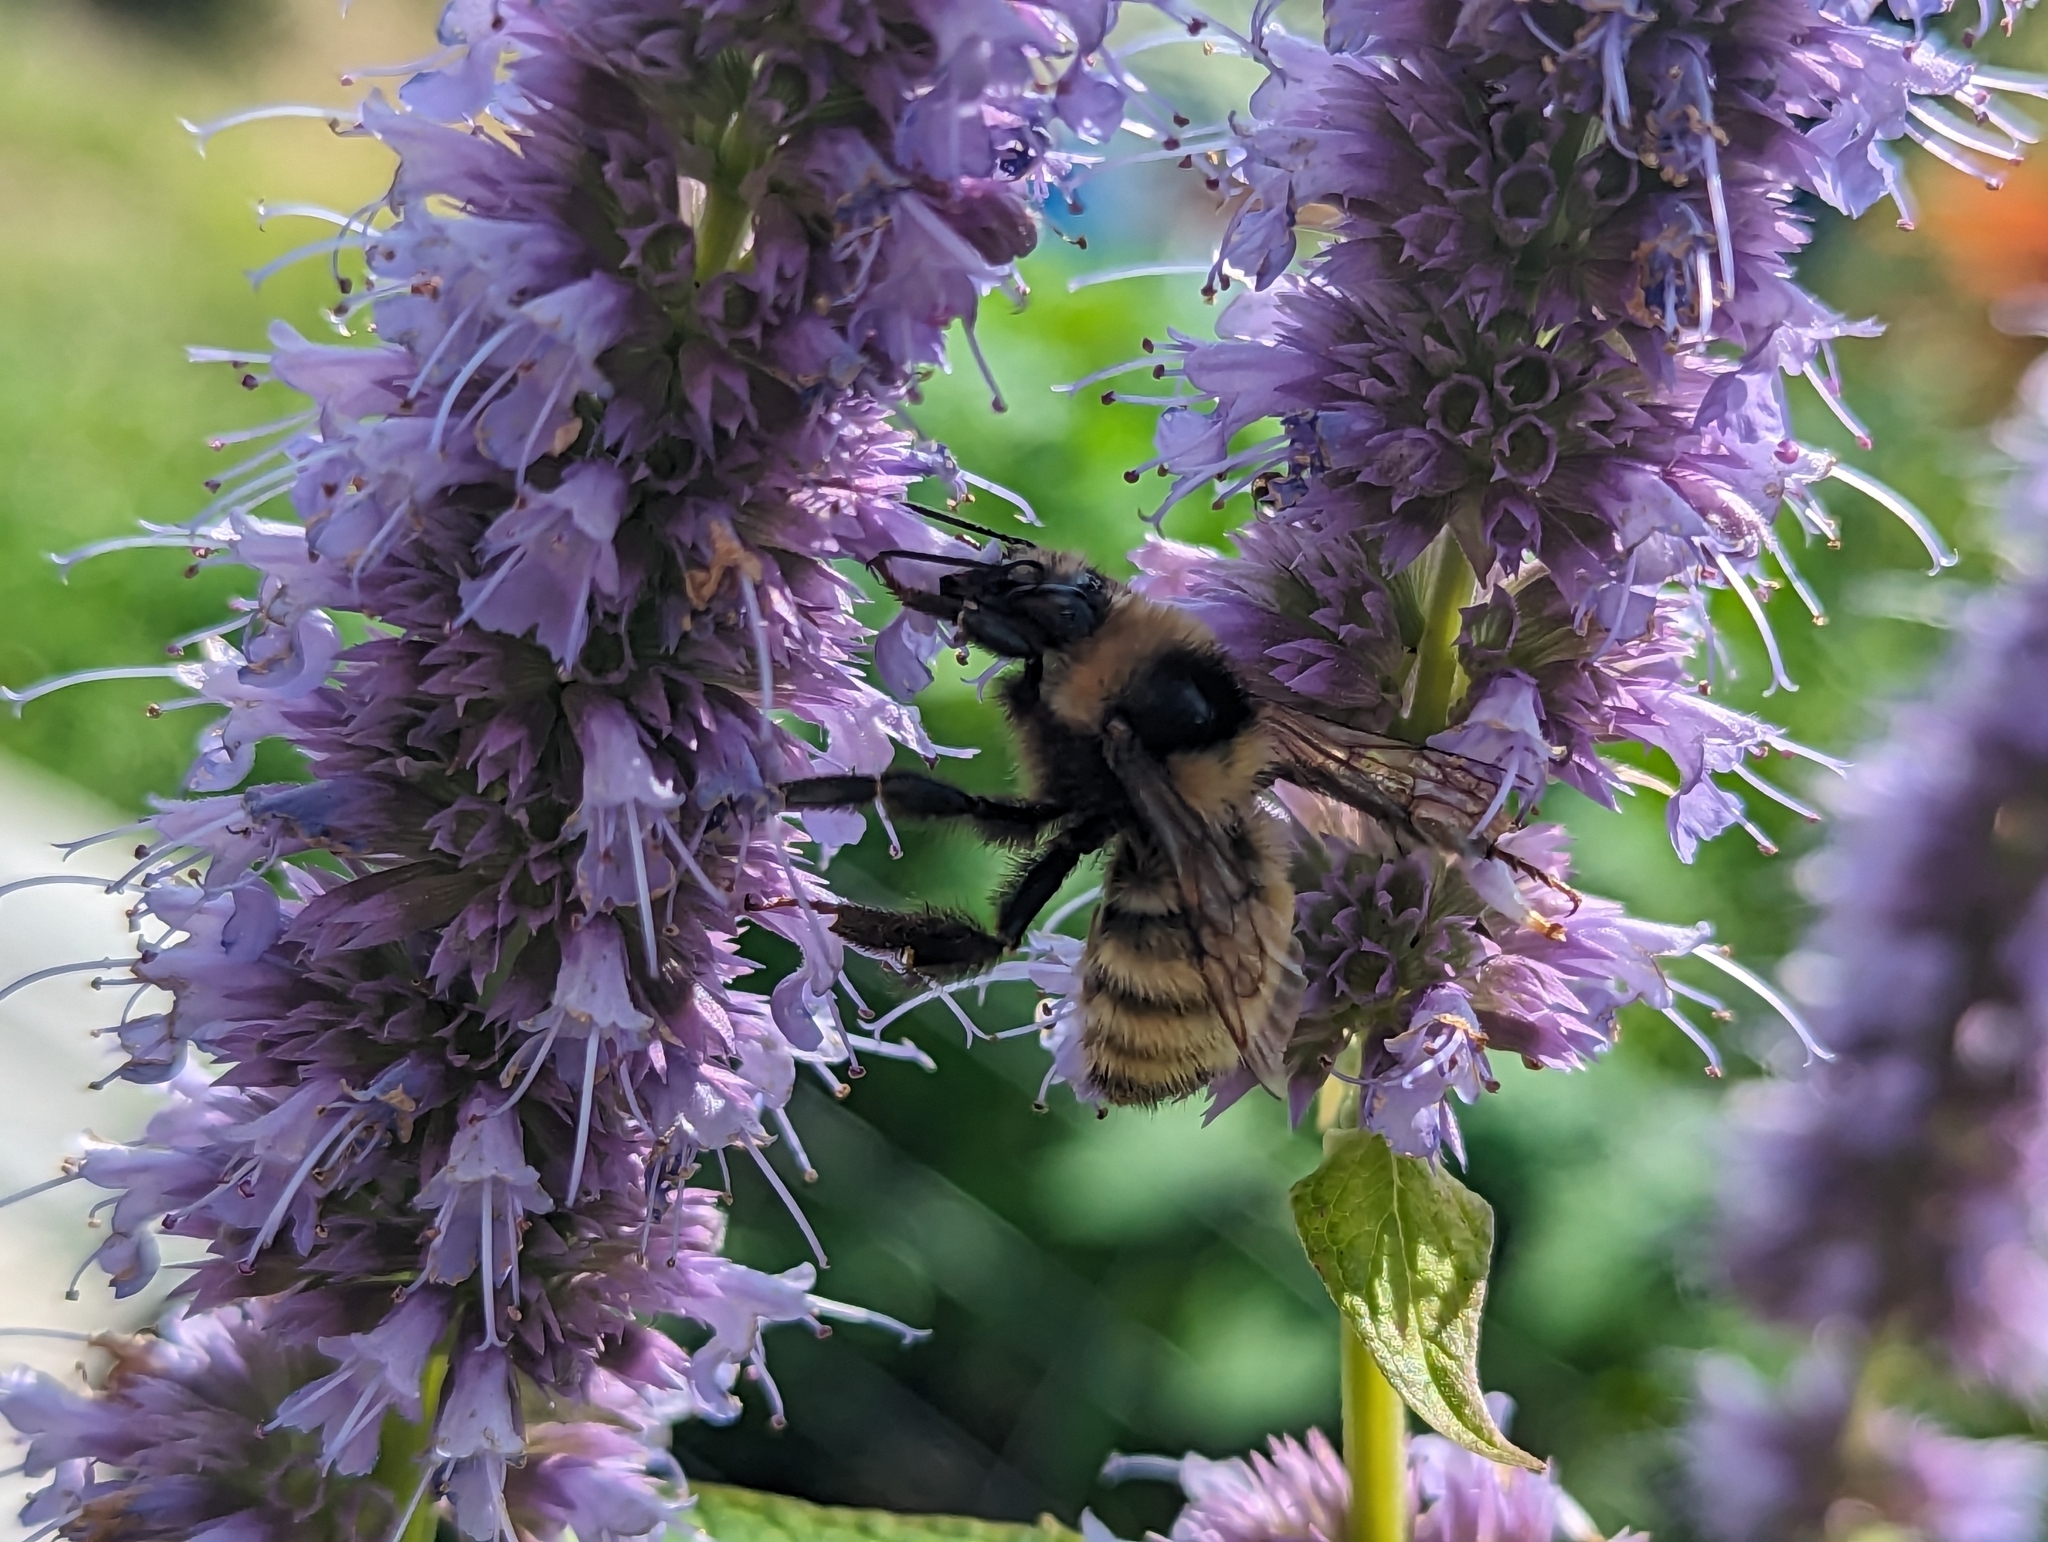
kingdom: Animalia
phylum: Arthropoda
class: Insecta
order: Hymenoptera
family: Apidae
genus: Bombus
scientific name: Bombus borealis
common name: Northern amber bumble bee
